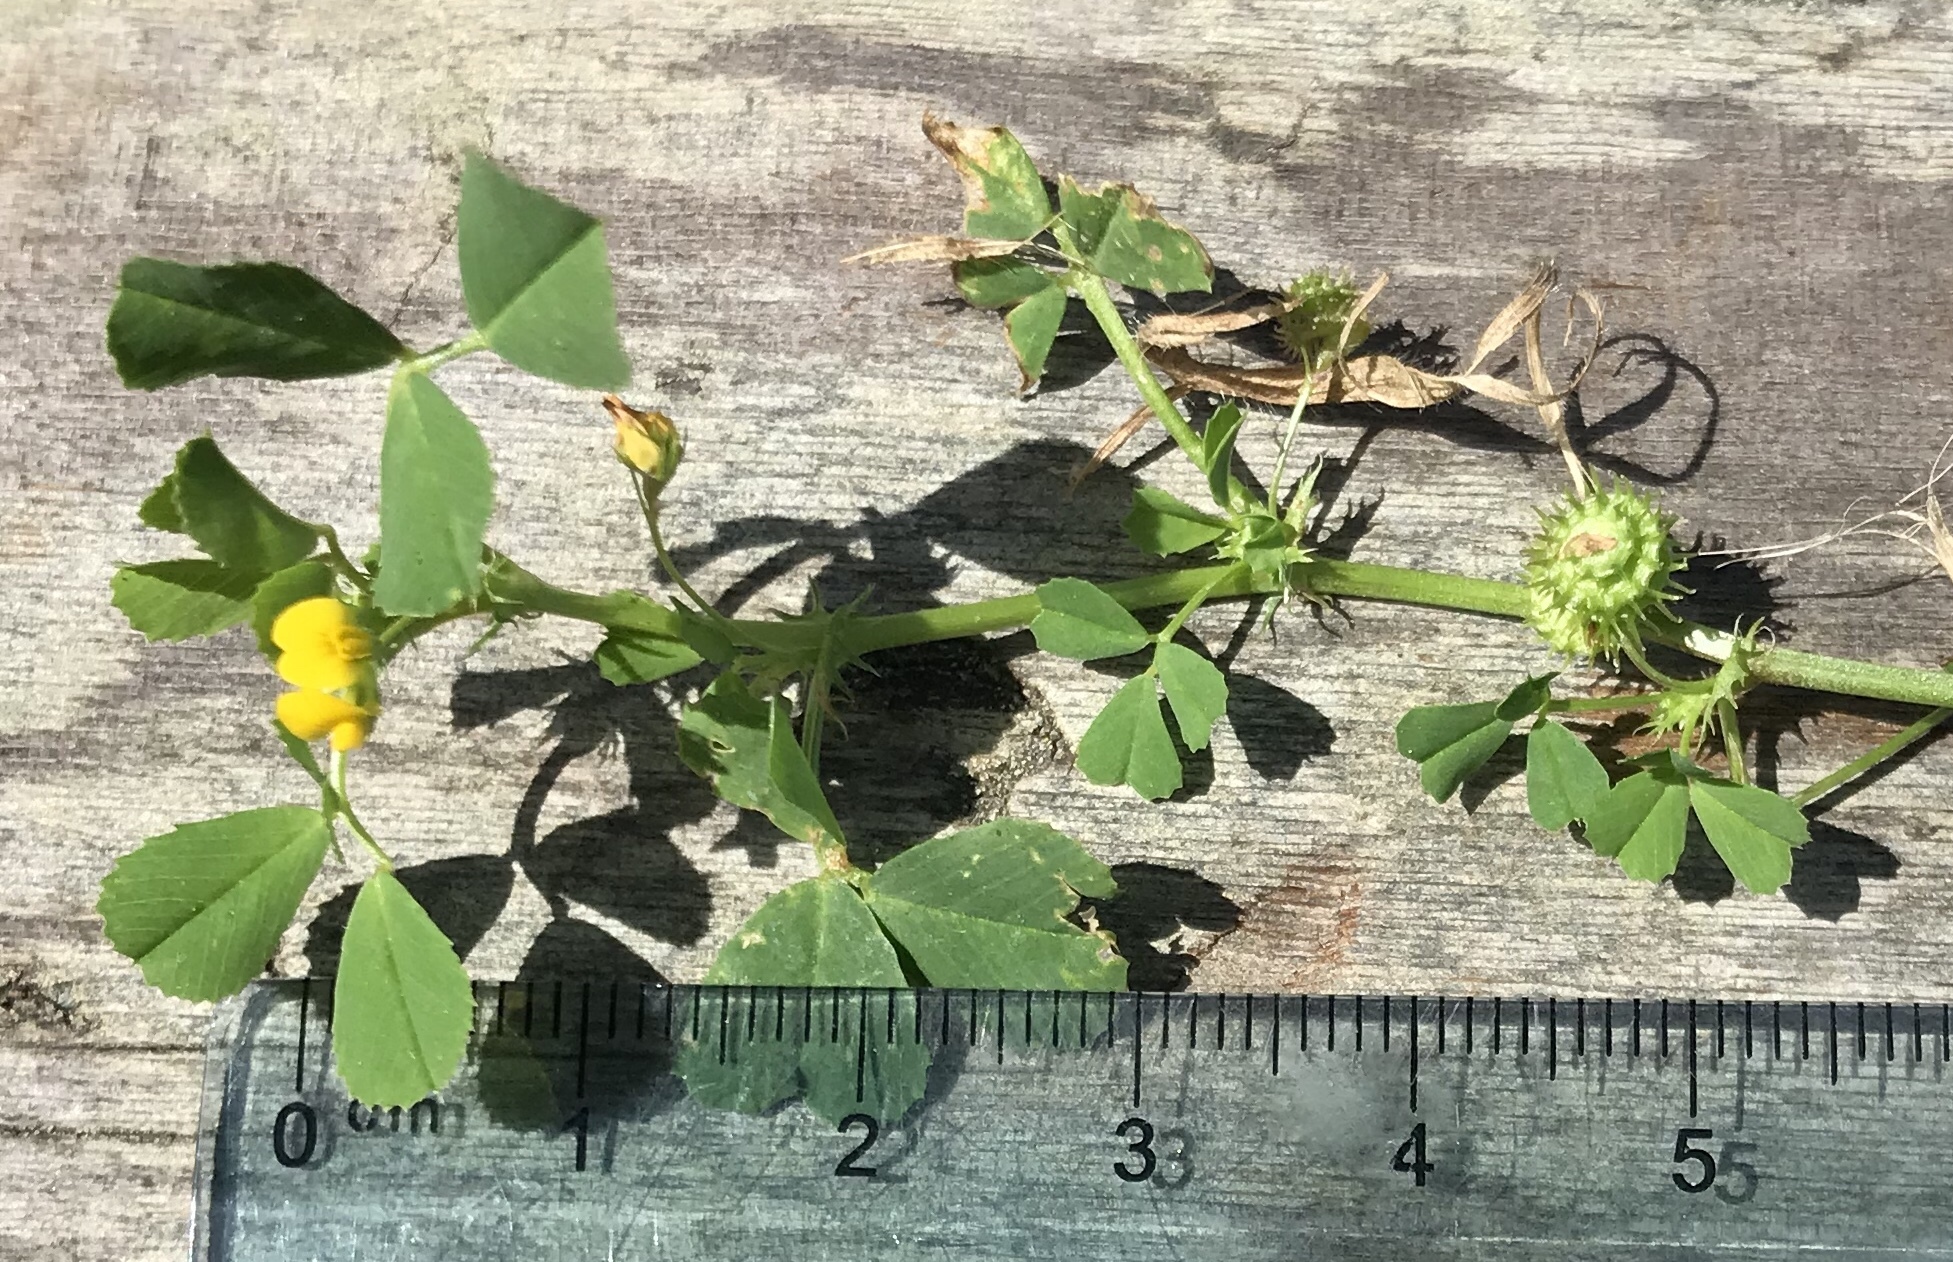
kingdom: Plantae
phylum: Tracheophyta
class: Magnoliopsida
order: Fabales
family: Fabaceae
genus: Medicago
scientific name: Medicago polymorpha
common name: Burclover
